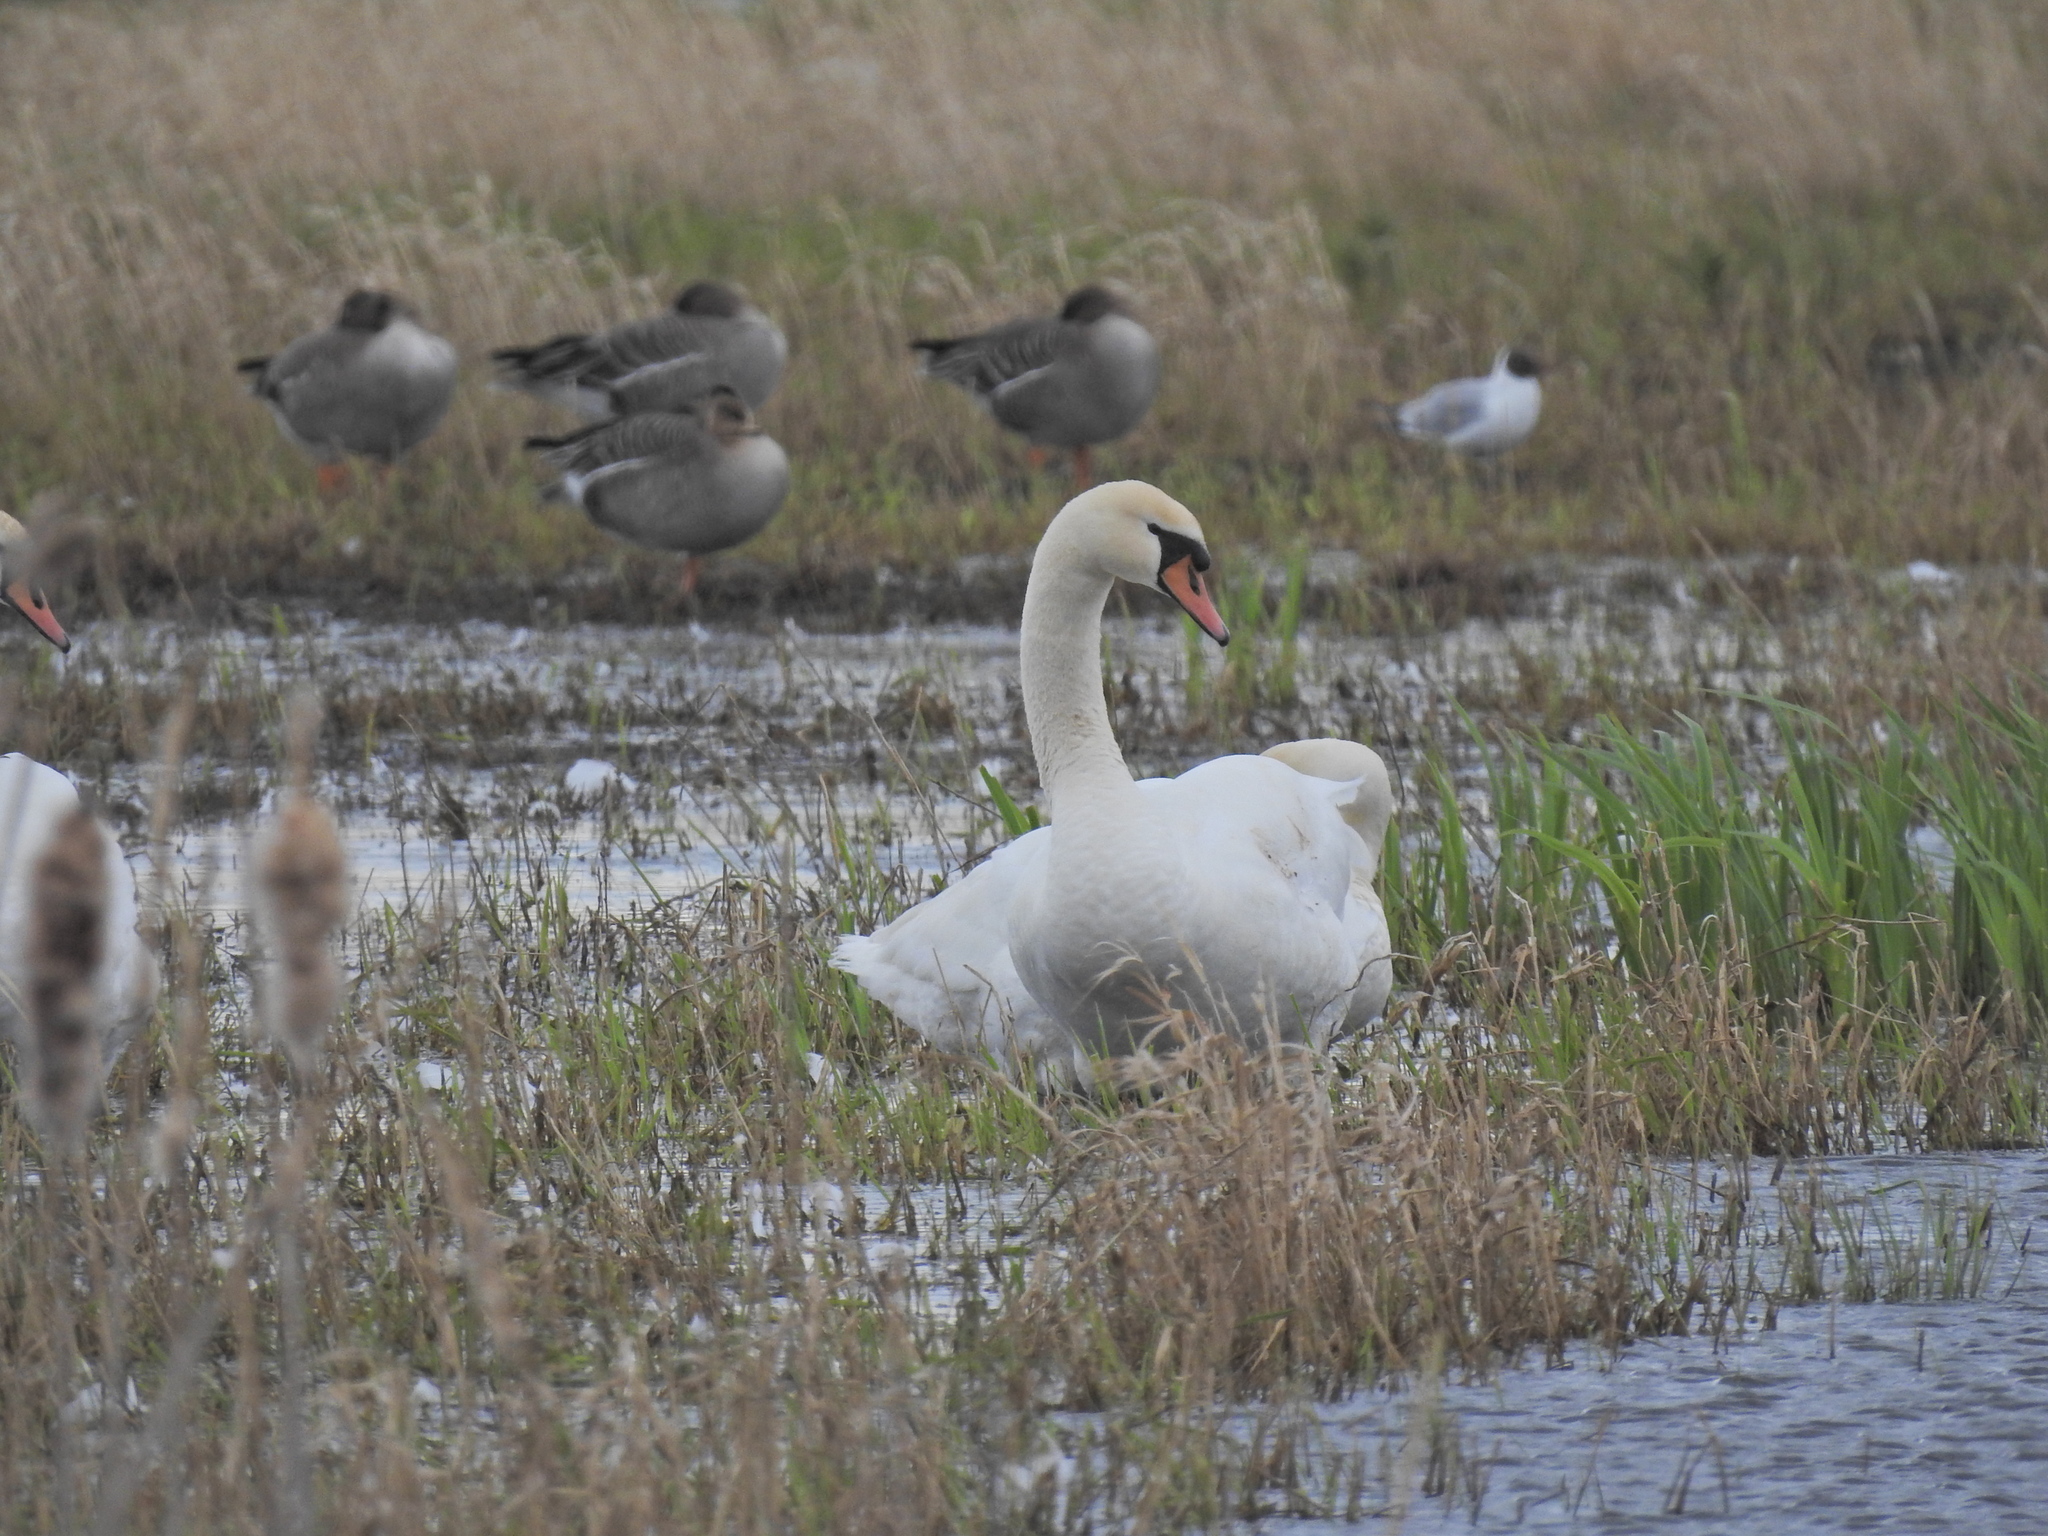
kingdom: Animalia
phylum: Chordata
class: Aves
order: Anseriformes
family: Anatidae
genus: Cygnus
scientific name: Cygnus olor
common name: Mute swan
